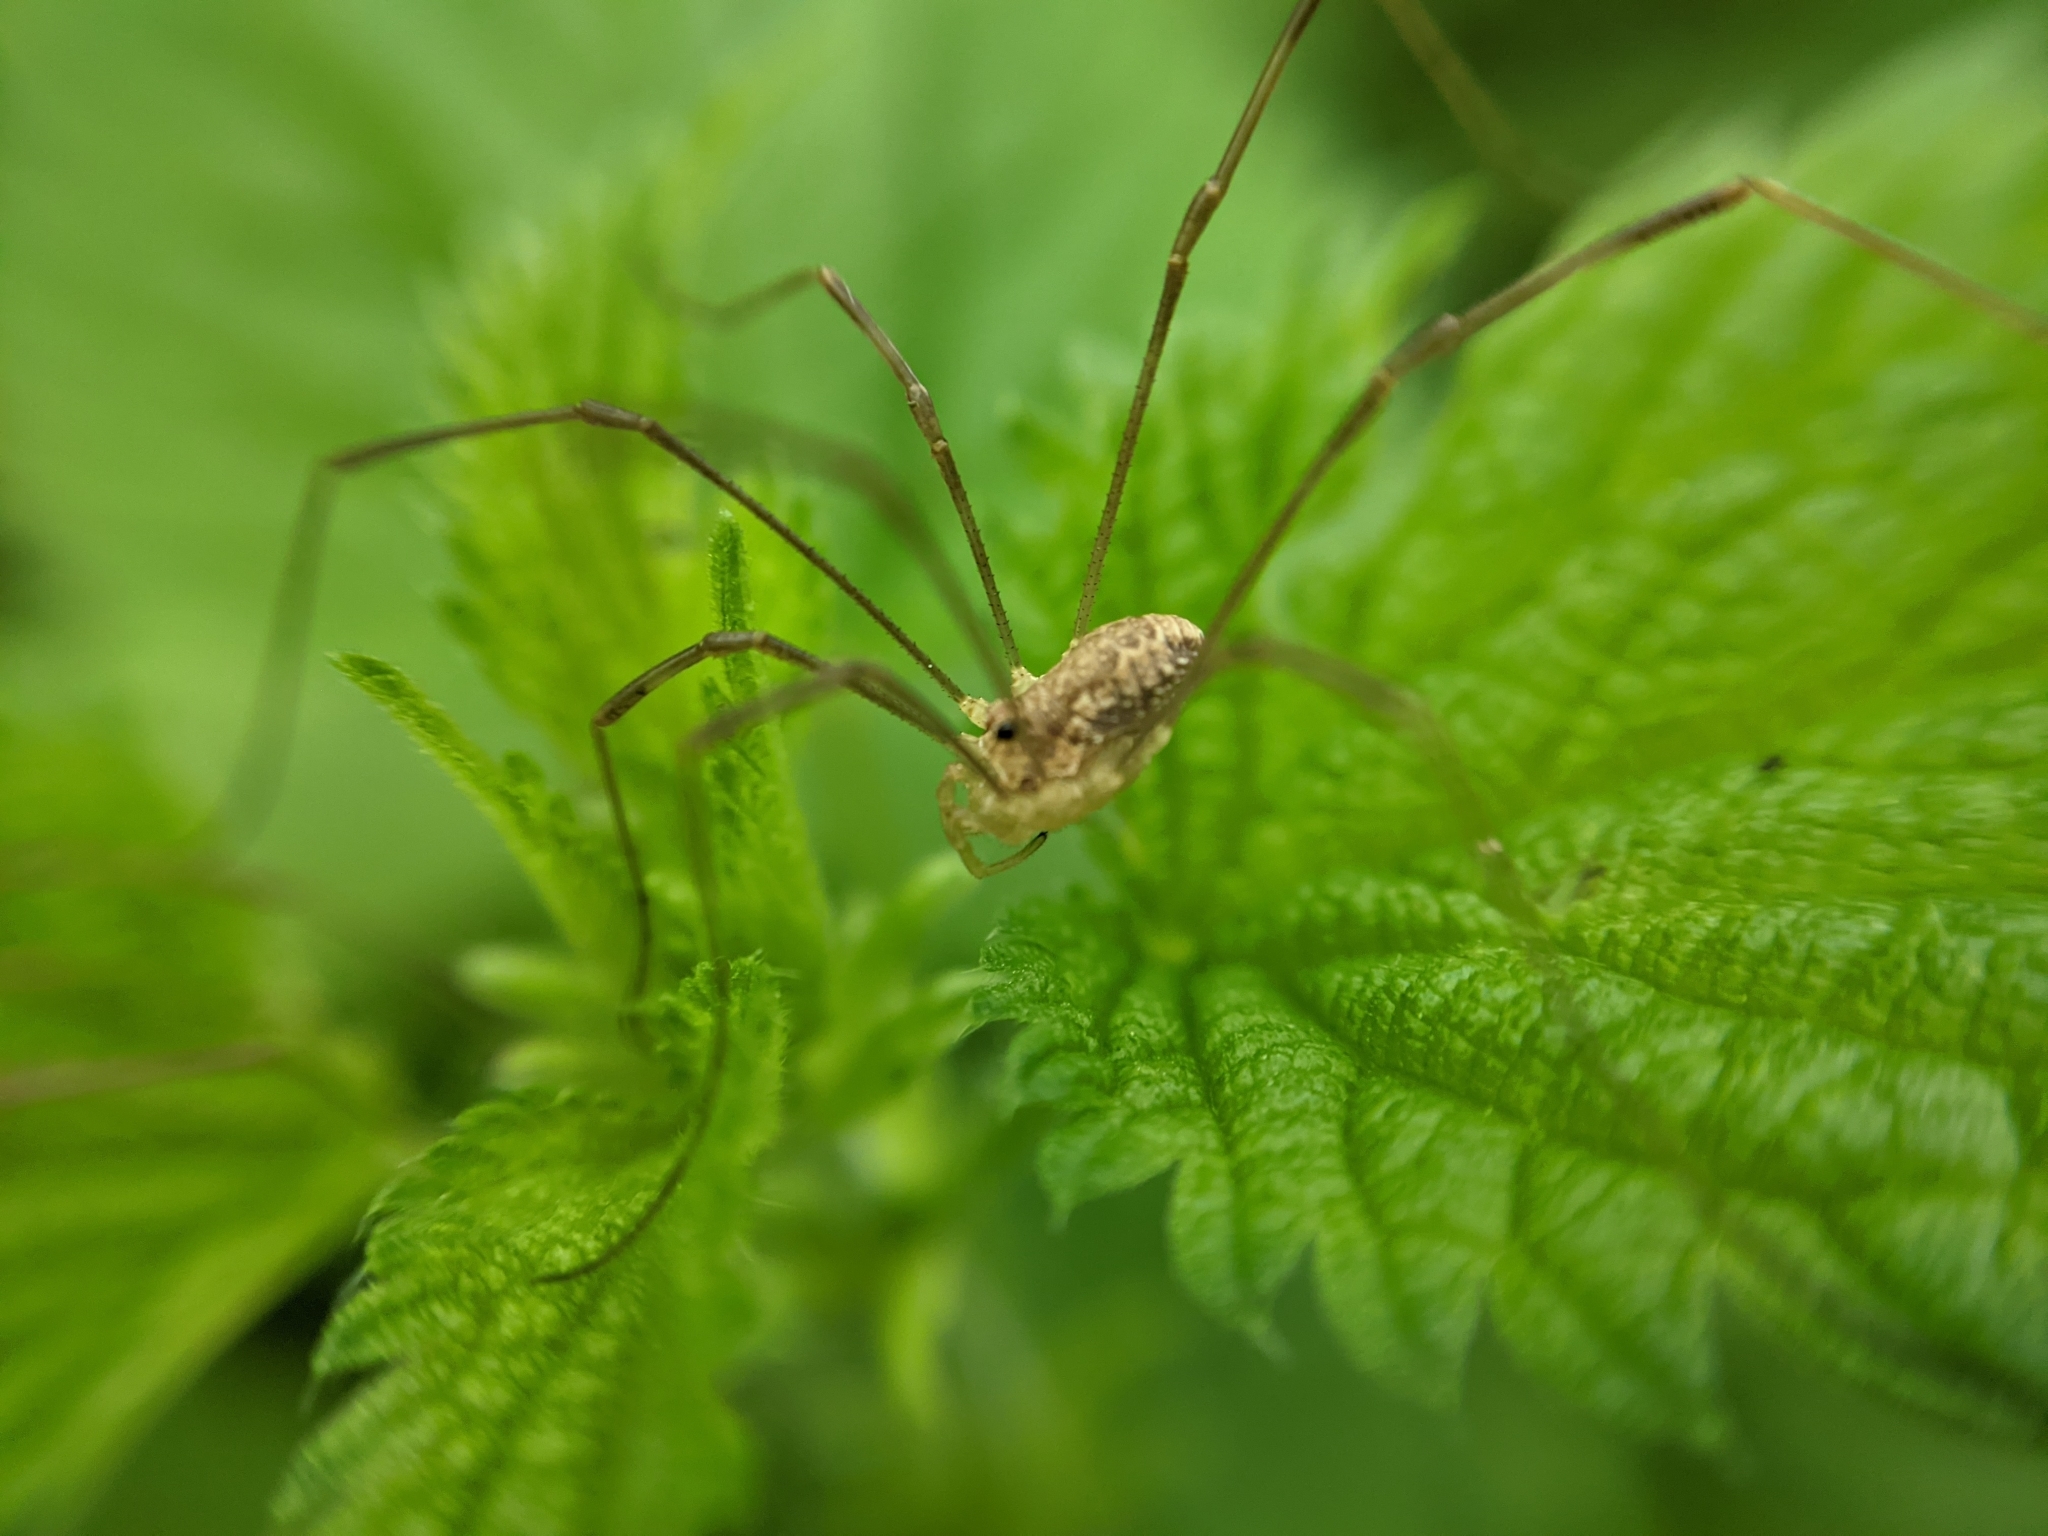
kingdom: Animalia
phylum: Arthropoda
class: Arachnida
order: Opiliones
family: Phalangiidae
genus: Rilaena
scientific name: Rilaena triangularis
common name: Spring harvestman
